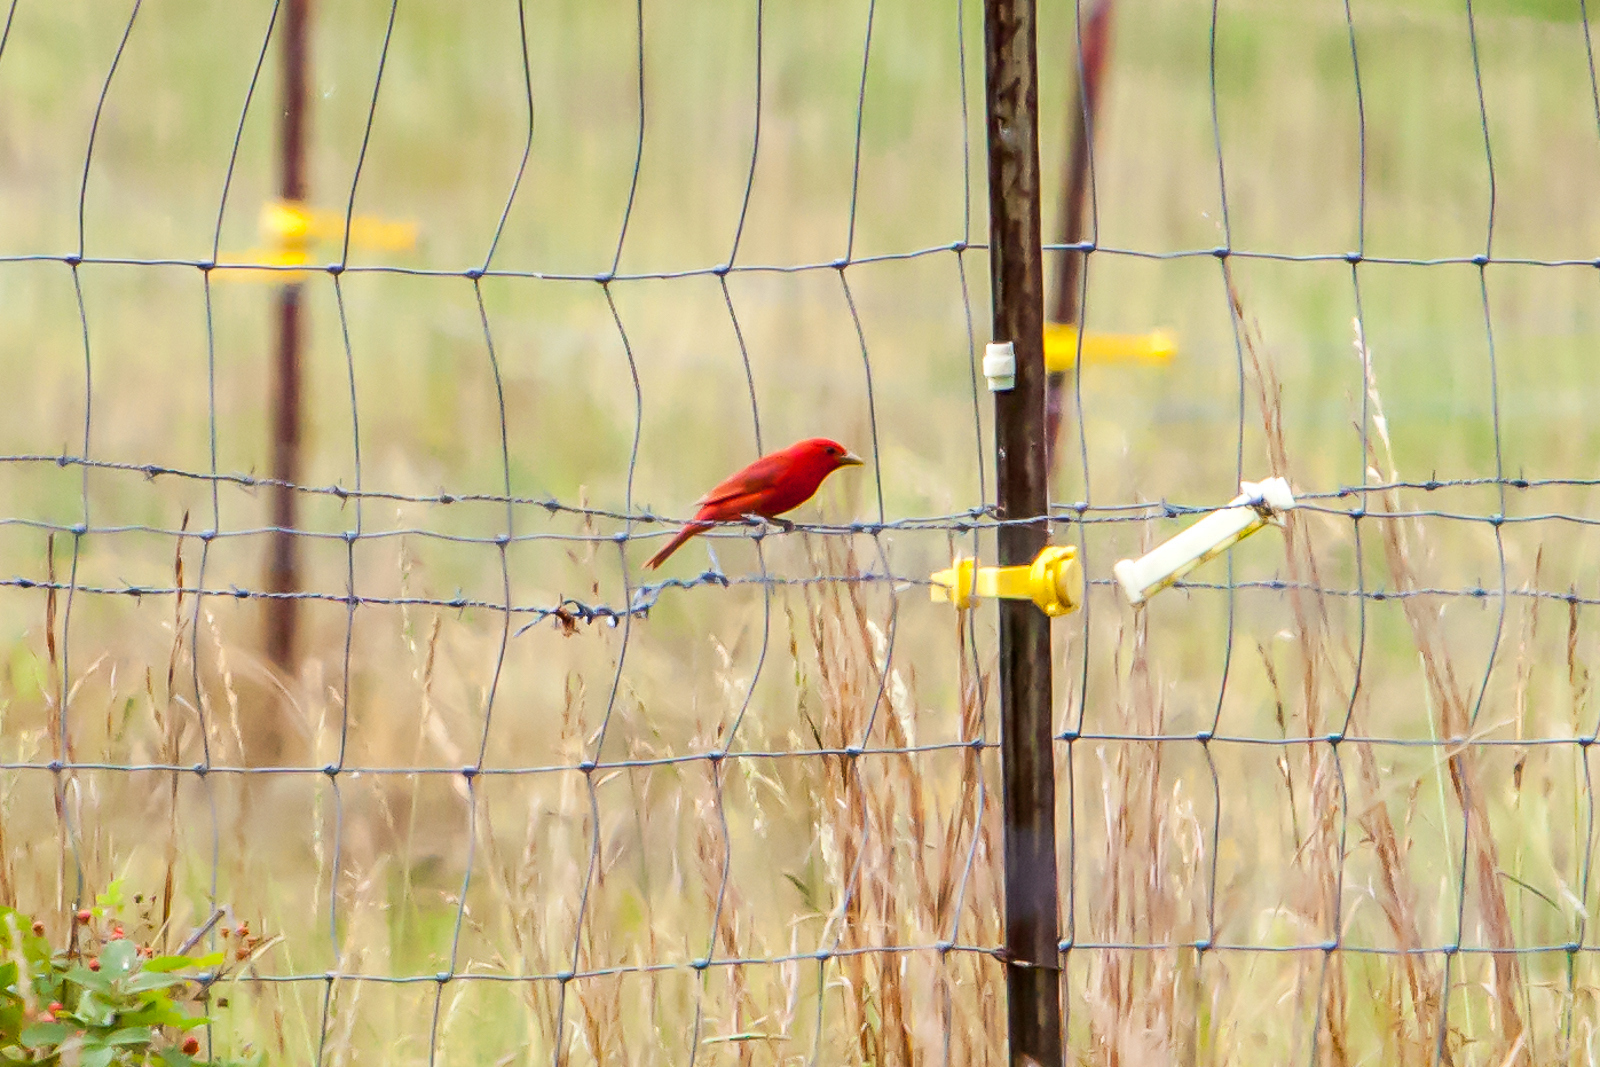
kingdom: Animalia
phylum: Chordata
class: Aves
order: Passeriformes
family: Cardinalidae
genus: Piranga
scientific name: Piranga rubra
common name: Summer tanager
